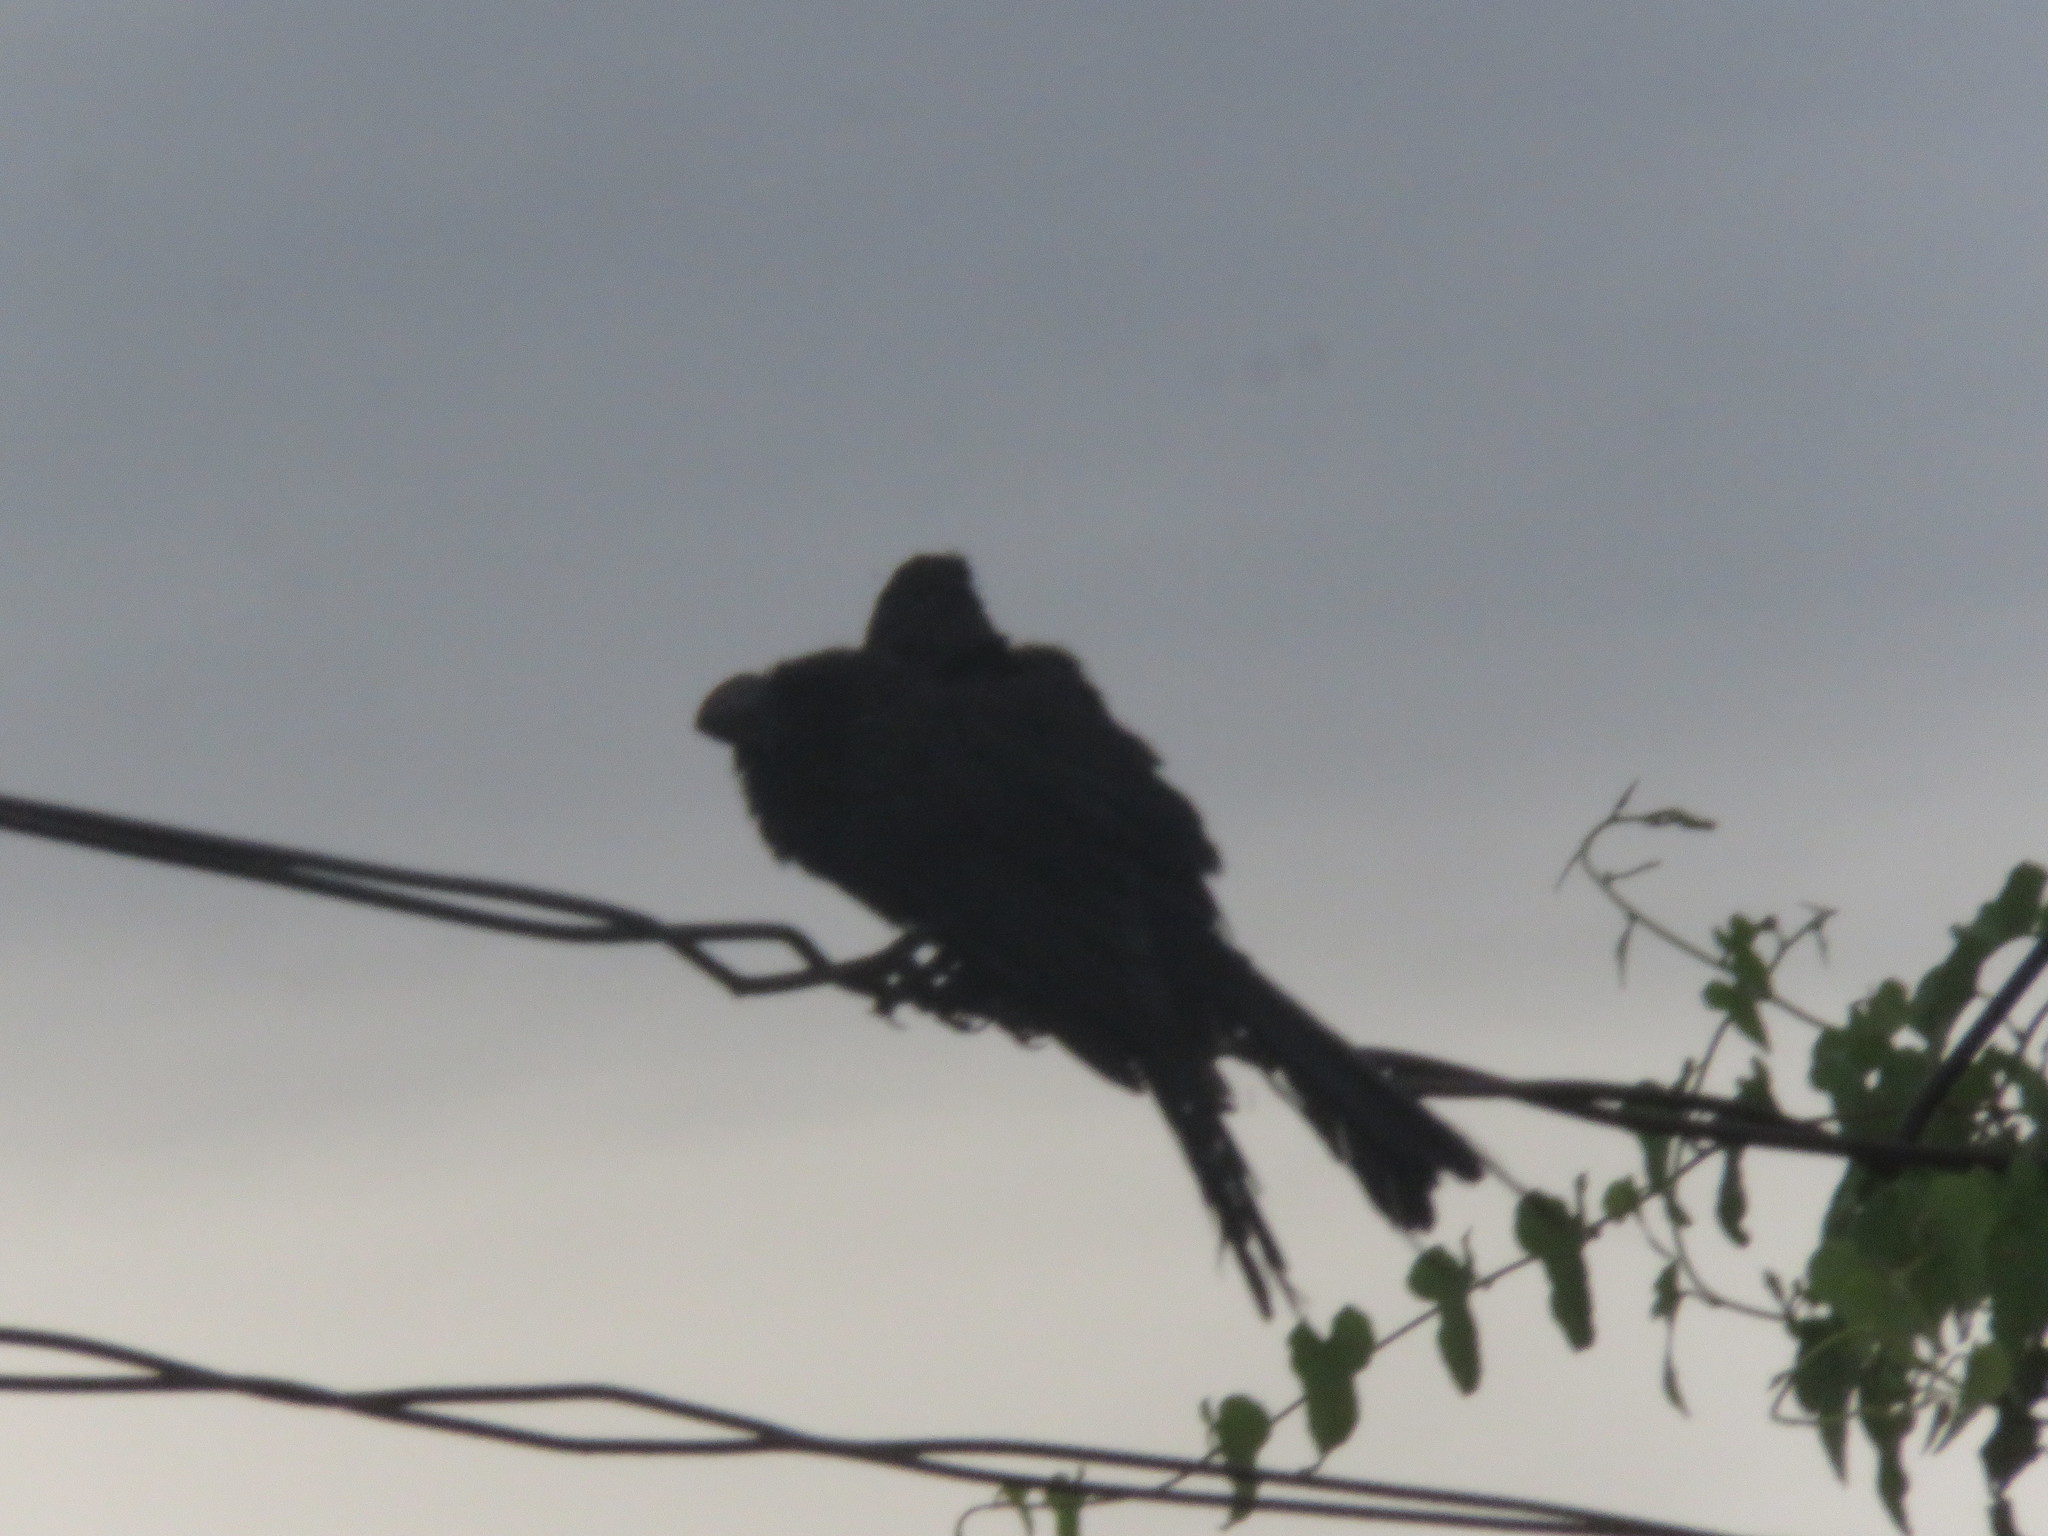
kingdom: Animalia
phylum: Chordata
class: Aves
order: Cuculiformes
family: Cuculidae
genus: Crotophaga
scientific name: Crotophaga ani
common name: Smooth-billed ani
